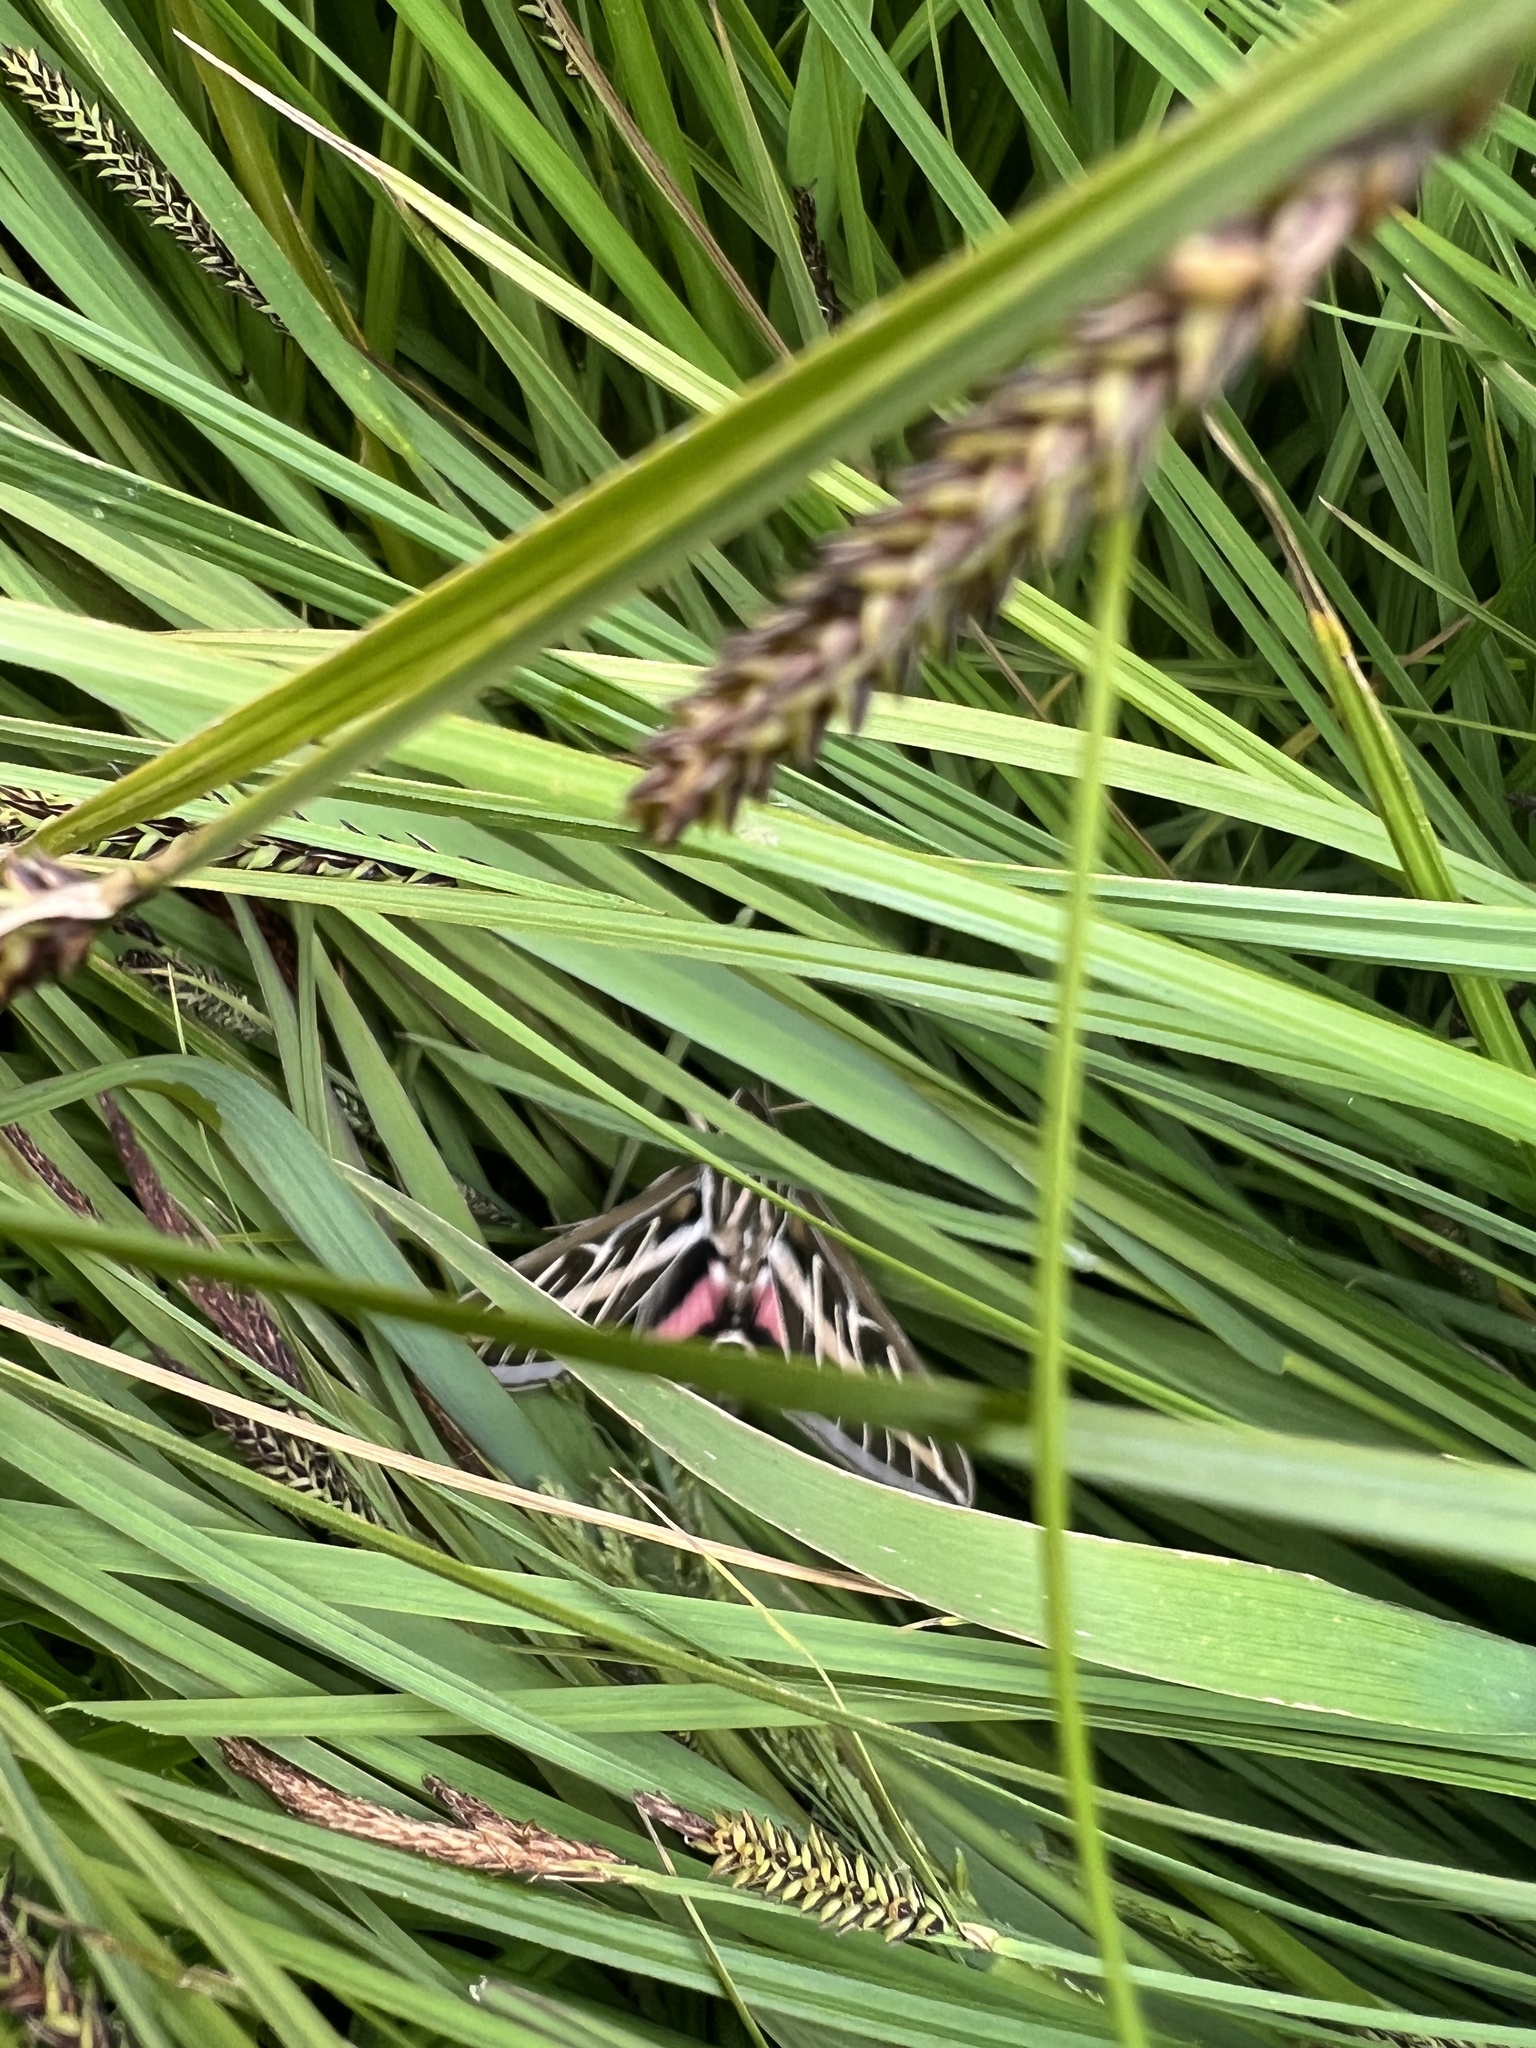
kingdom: Animalia
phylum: Arthropoda
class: Insecta
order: Lepidoptera
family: Sphingidae
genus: Hyles
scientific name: Hyles lineata
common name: White-lined sphinx
